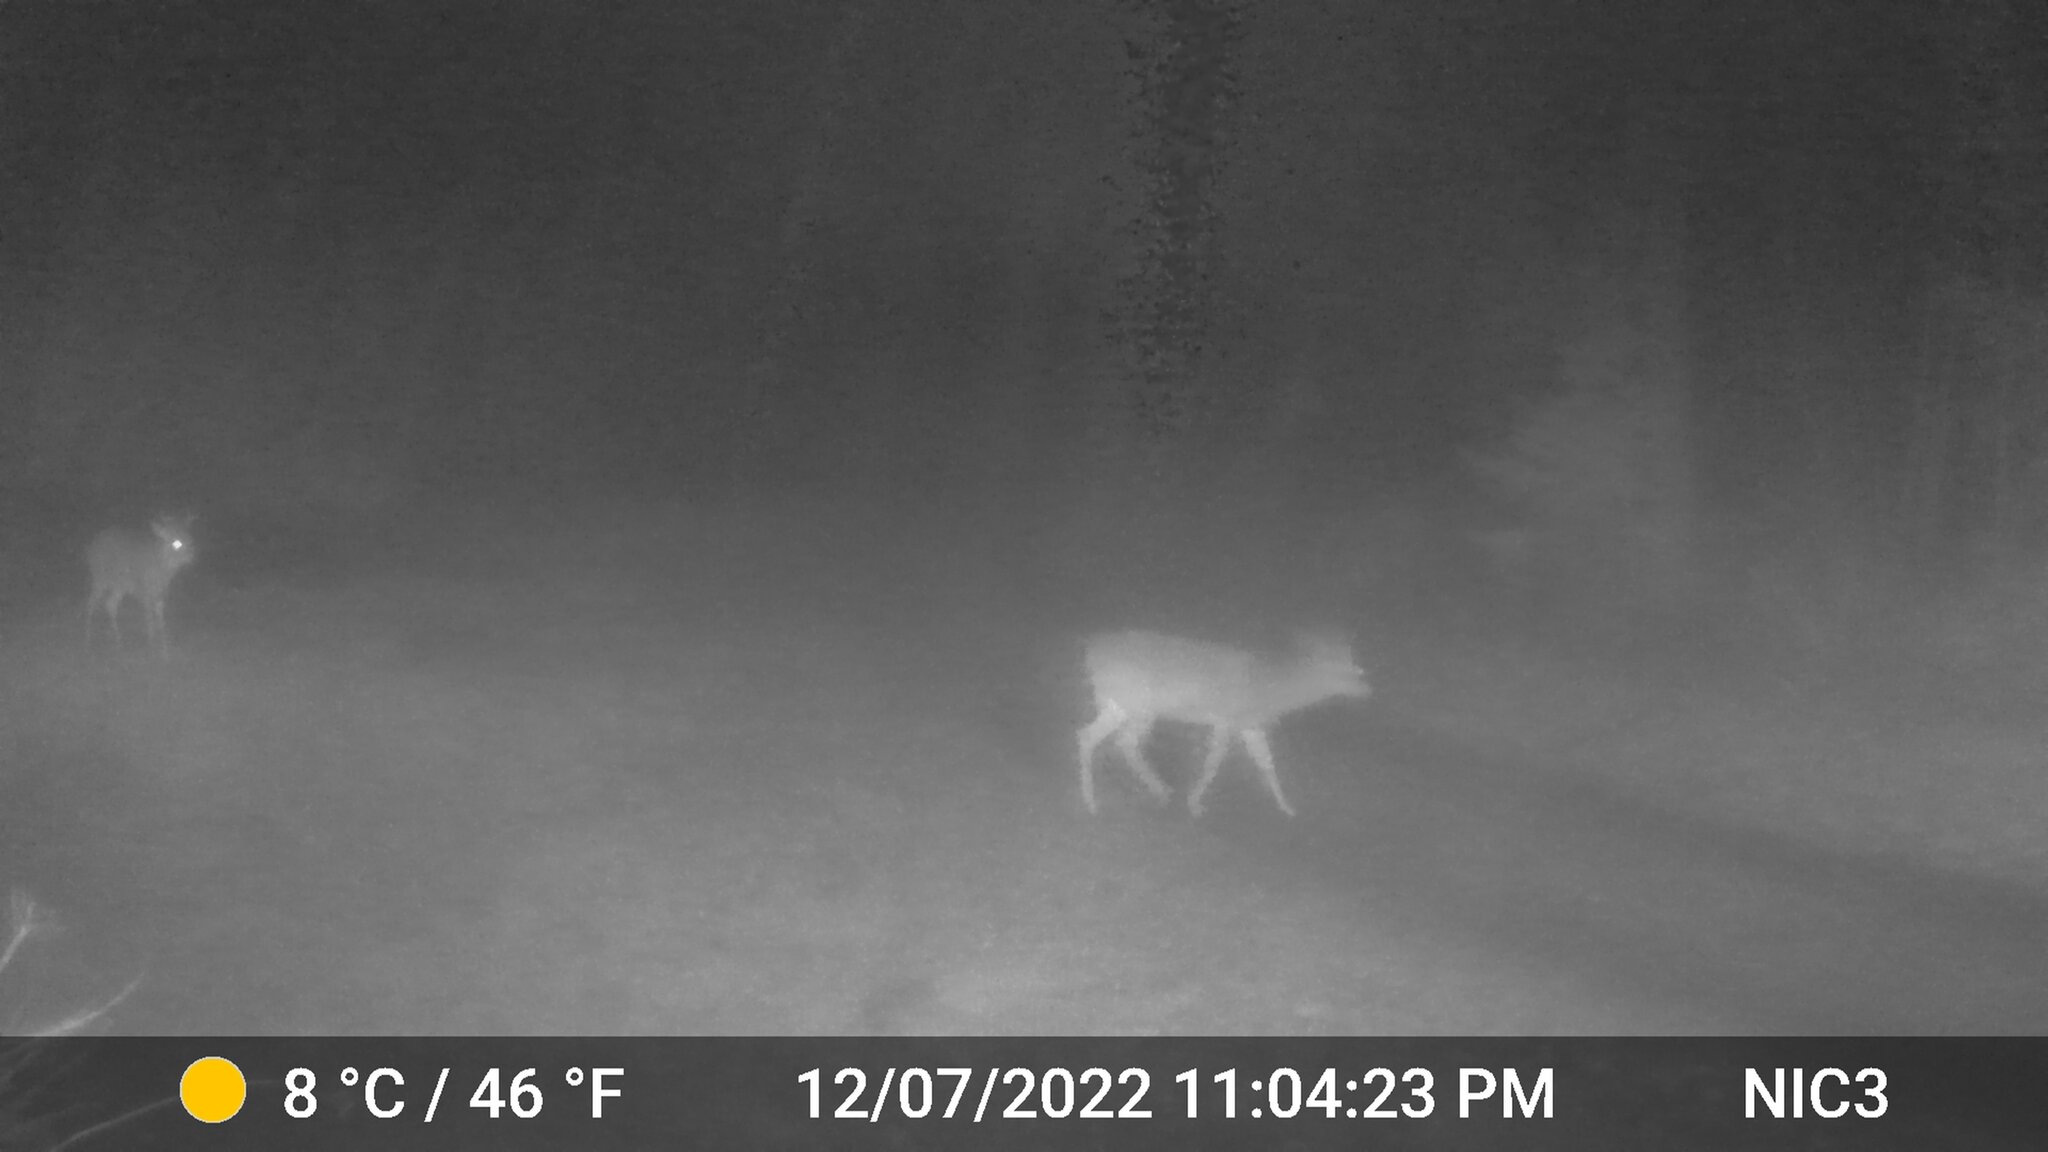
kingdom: Animalia
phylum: Chordata
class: Mammalia
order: Artiodactyla
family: Cervidae
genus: Odocoileus
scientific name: Odocoileus virginianus
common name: White-tailed deer
